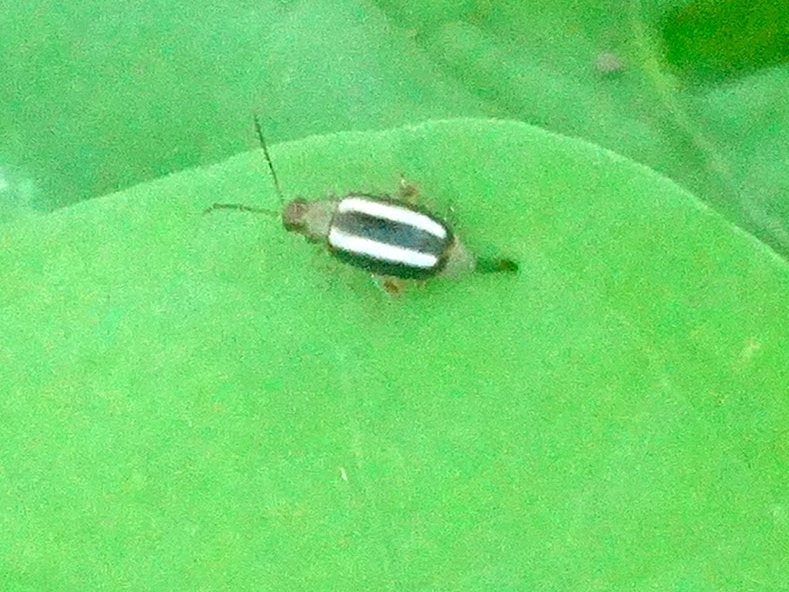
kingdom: Animalia
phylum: Arthropoda
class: Insecta
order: Coleoptera
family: Chrysomelidae
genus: Systena
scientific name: Systena
